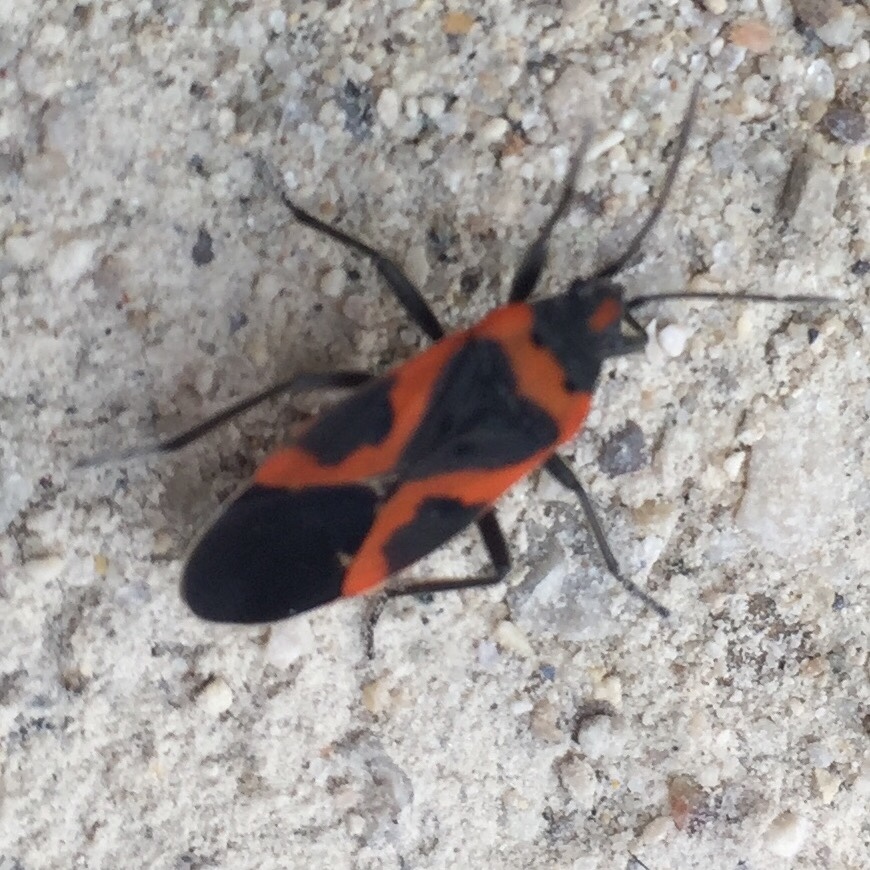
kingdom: Animalia
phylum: Arthropoda
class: Insecta
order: Hemiptera
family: Lygaeidae
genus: Lygaeus
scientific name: Lygaeus kalmii
